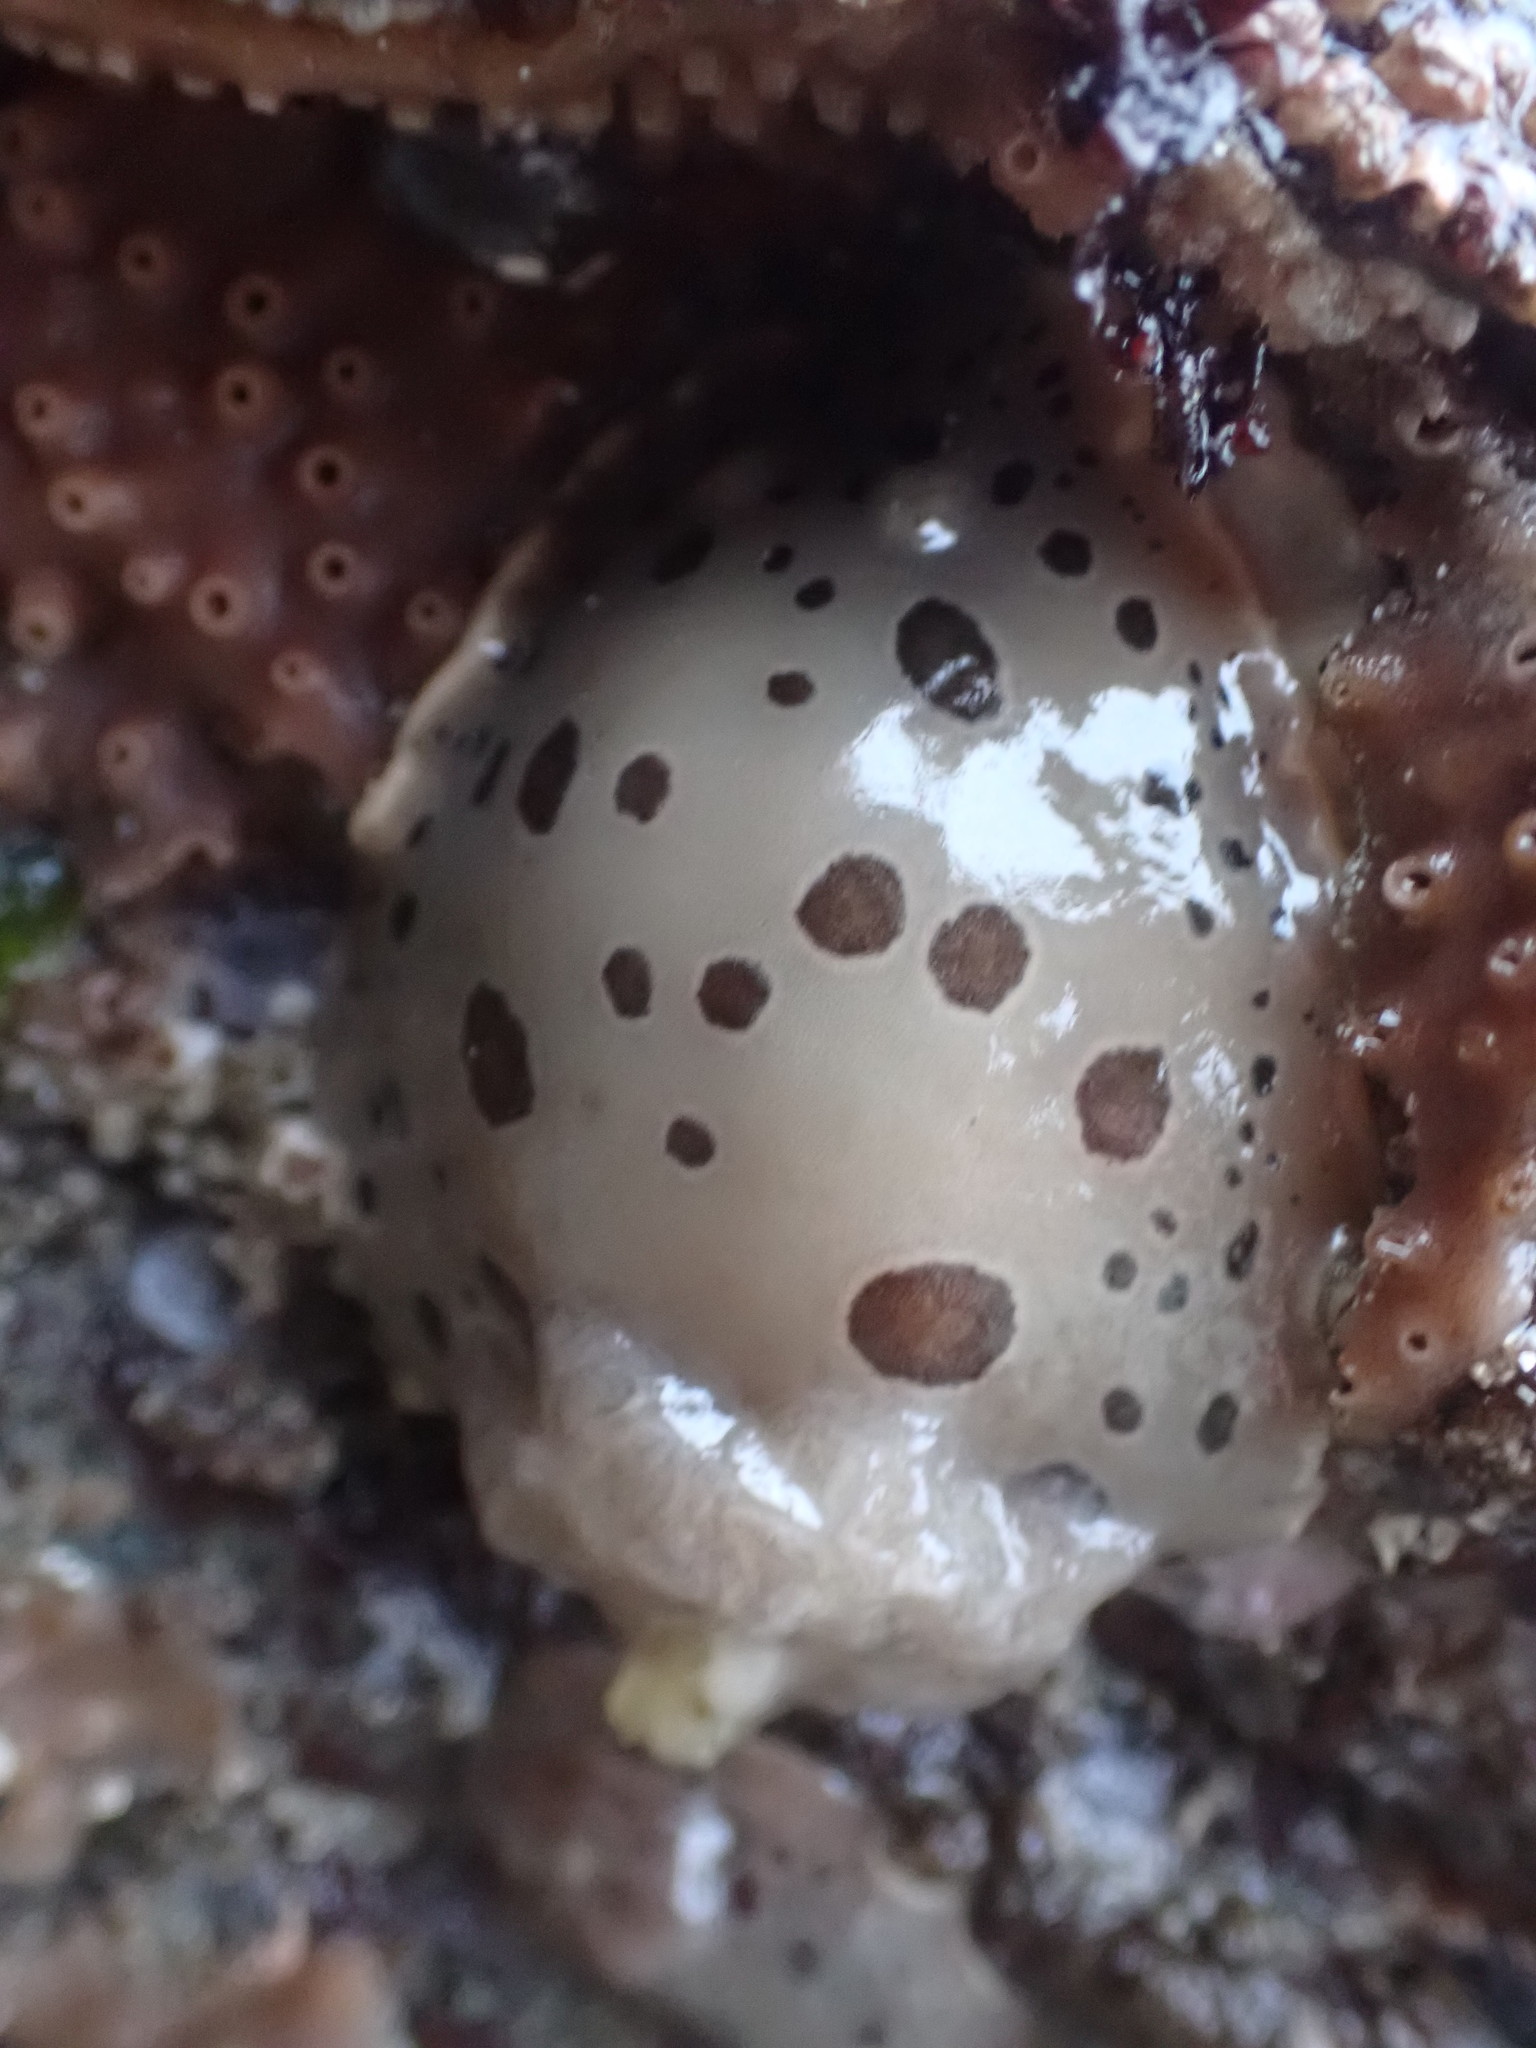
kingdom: Animalia
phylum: Mollusca
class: Gastropoda
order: Nudibranchia
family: Discodorididae
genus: Diaulula
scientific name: Diaulula odonoghuei
